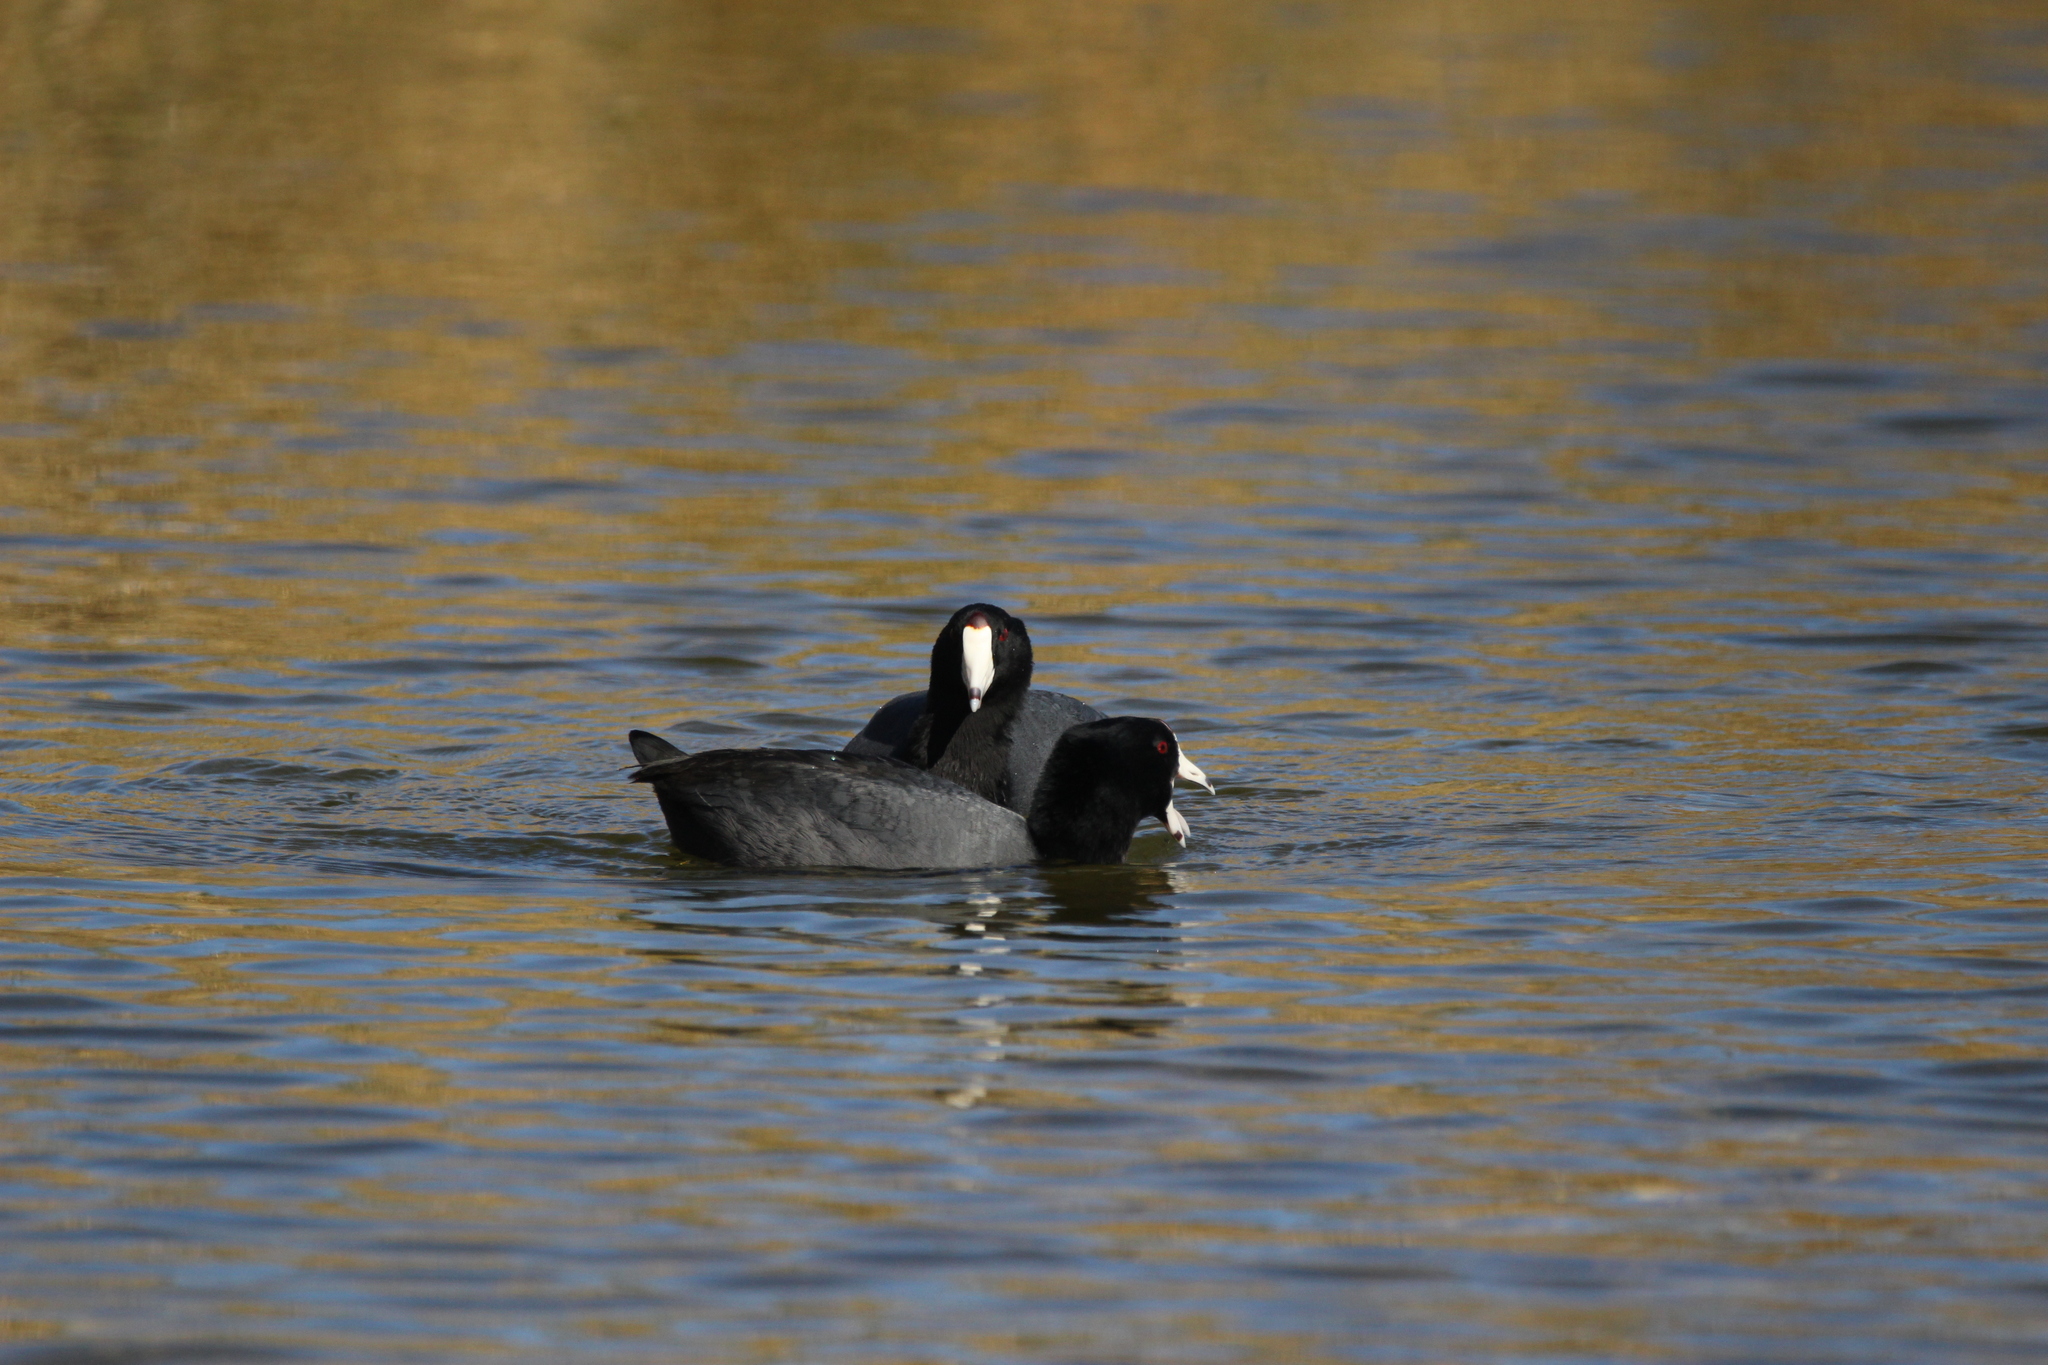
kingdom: Animalia
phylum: Chordata
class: Aves
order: Gruiformes
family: Rallidae
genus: Fulica
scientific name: Fulica americana
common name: American coot
